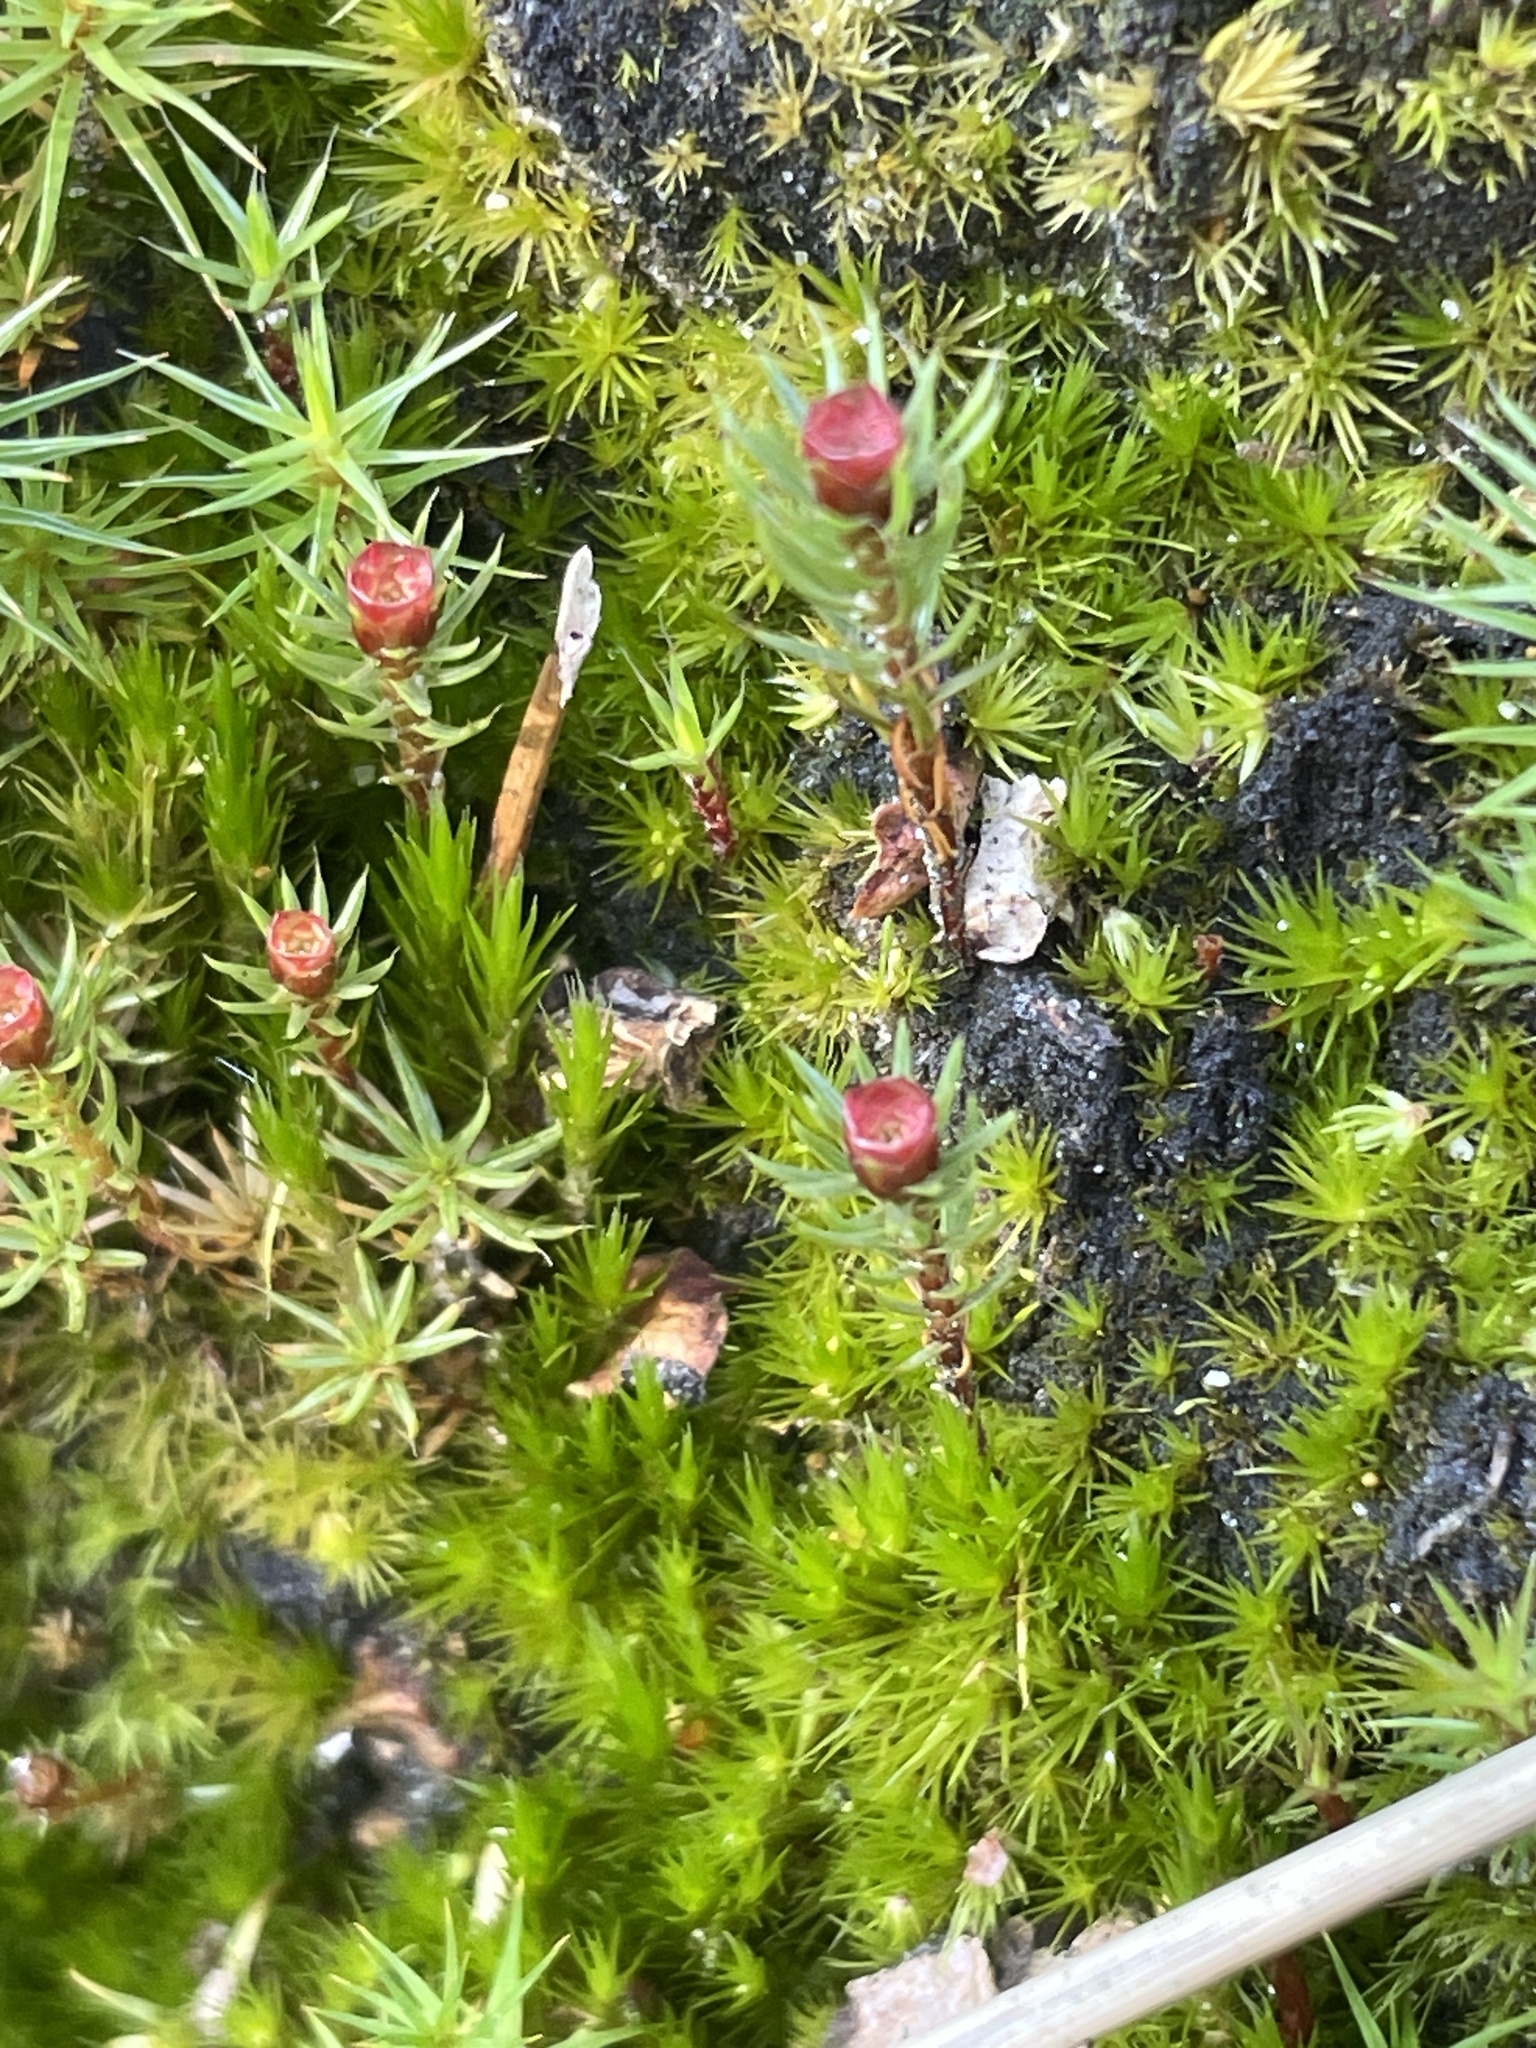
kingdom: Plantae
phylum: Bryophyta
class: Polytrichopsida
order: Polytrichales
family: Polytrichaceae
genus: Polytrichum
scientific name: Polytrichum piliferum
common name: Bristly haircap
